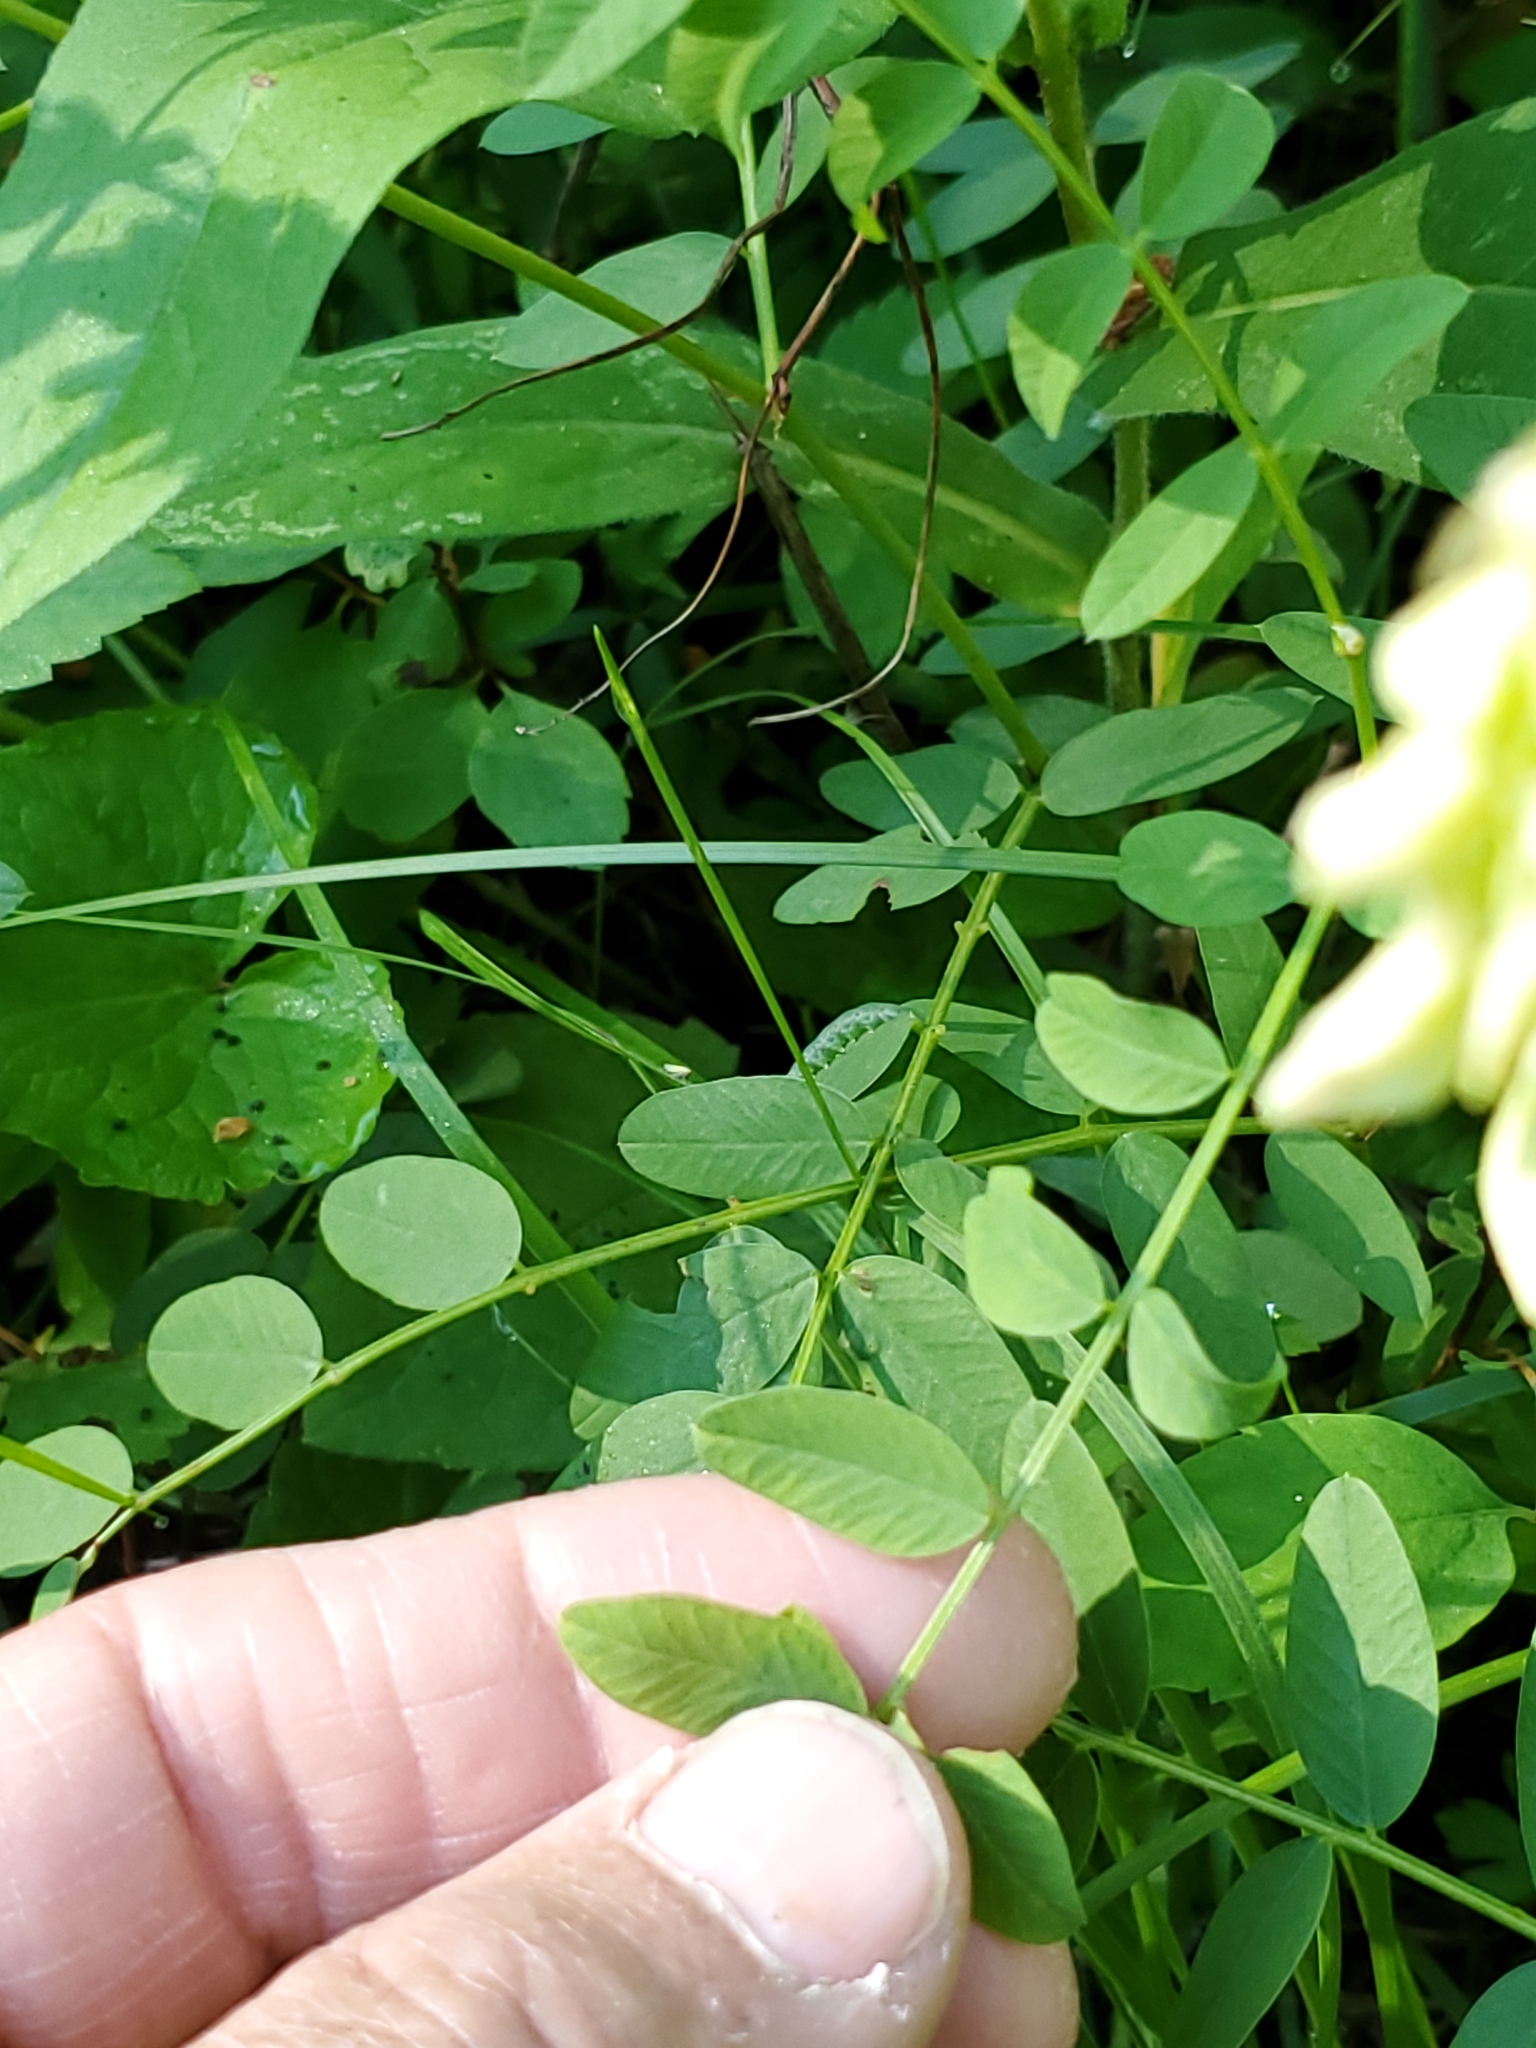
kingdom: Plantae
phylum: Tracheophyta
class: Magnoliopsida
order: Fabales
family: Fabaceae
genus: Hedysarum
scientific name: Hedysarum sulphurescens
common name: Sulphur hedysarum
